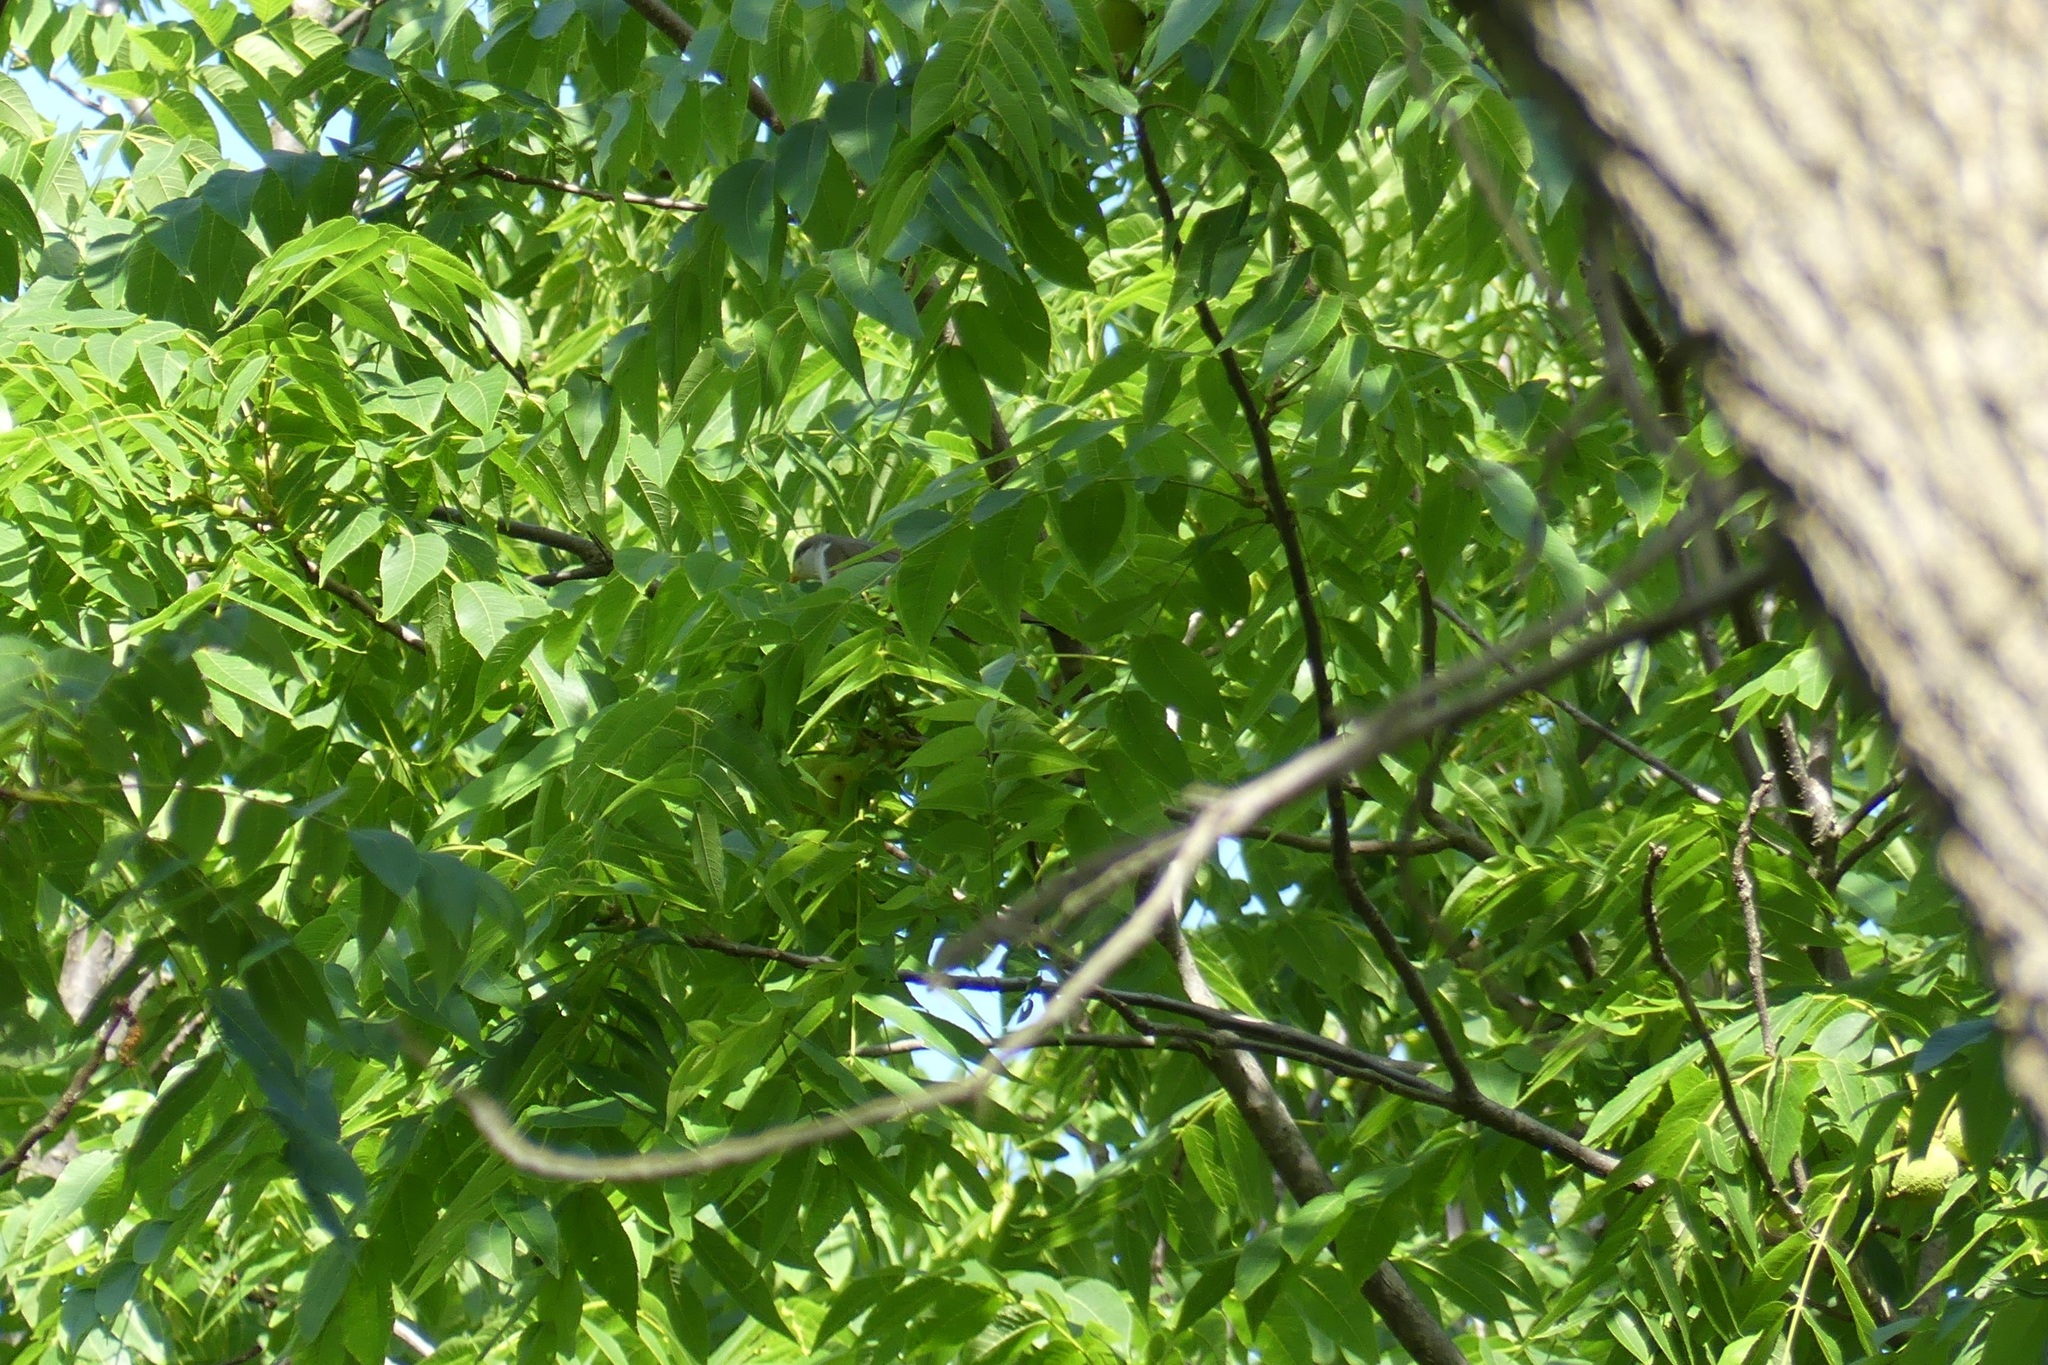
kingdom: Animalia
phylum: Chordata
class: Aves
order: Cuculiformes
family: Cuculidae
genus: Coccyzus
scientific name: Coccyzus americanus
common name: Yellow-billed cuckoo
